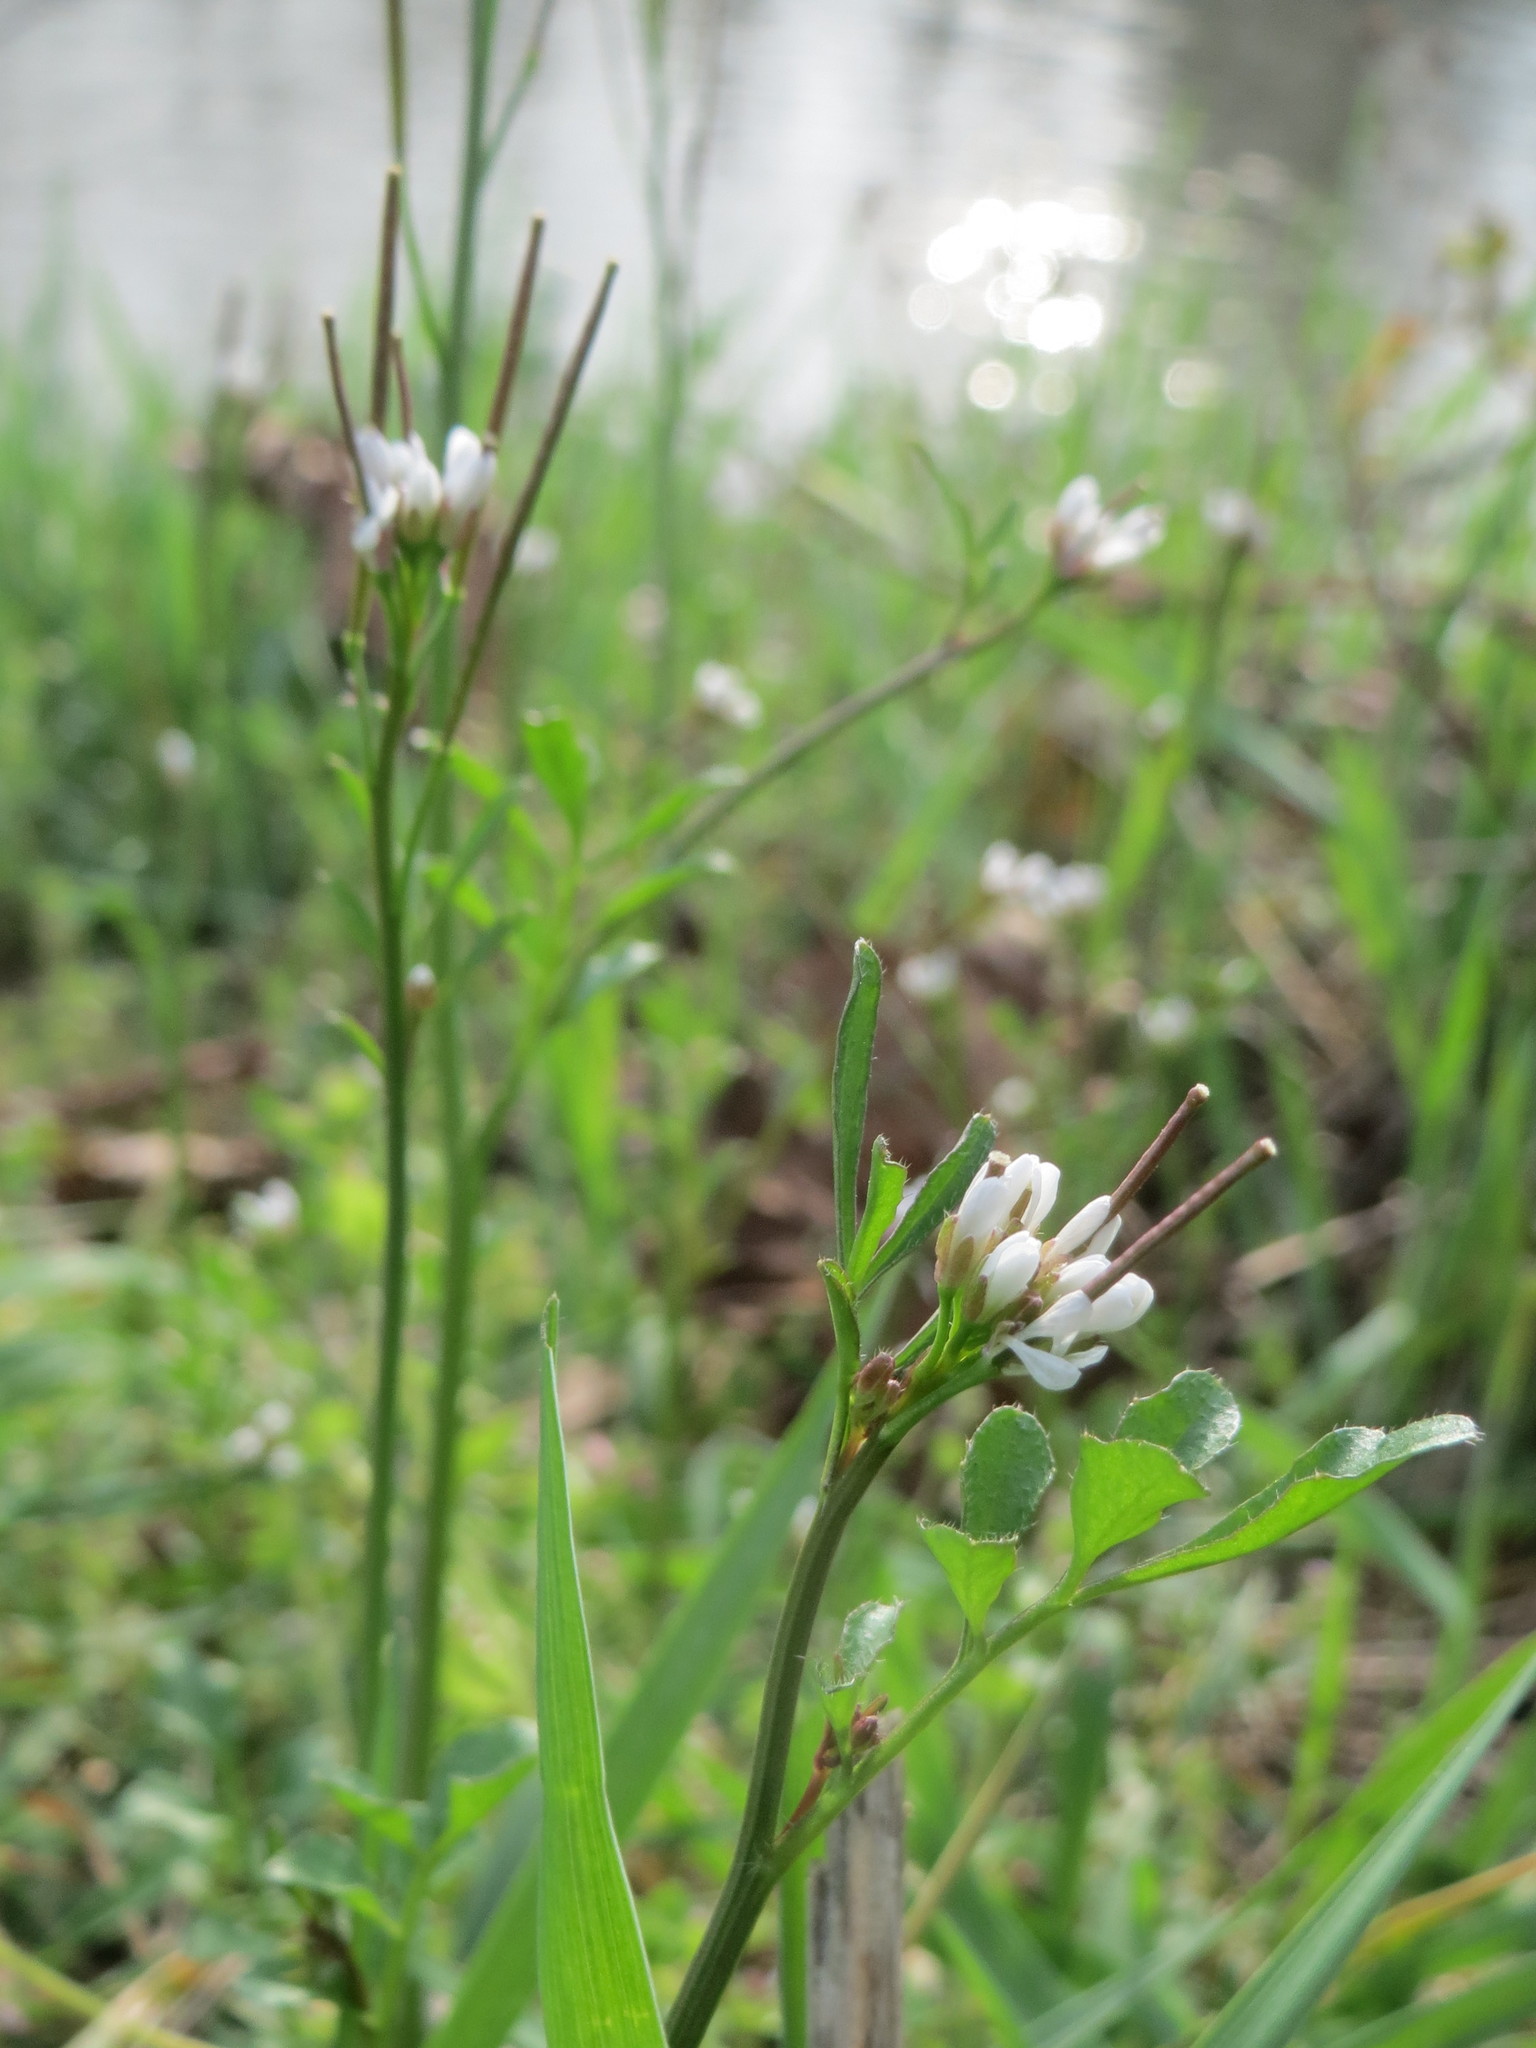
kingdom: Plantae
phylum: Tracheophyta
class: Magnoliopsida
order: Brassicales
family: Brassicaceae
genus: Cardamine
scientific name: Cardamine hirsuta
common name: Hairy bittercress
